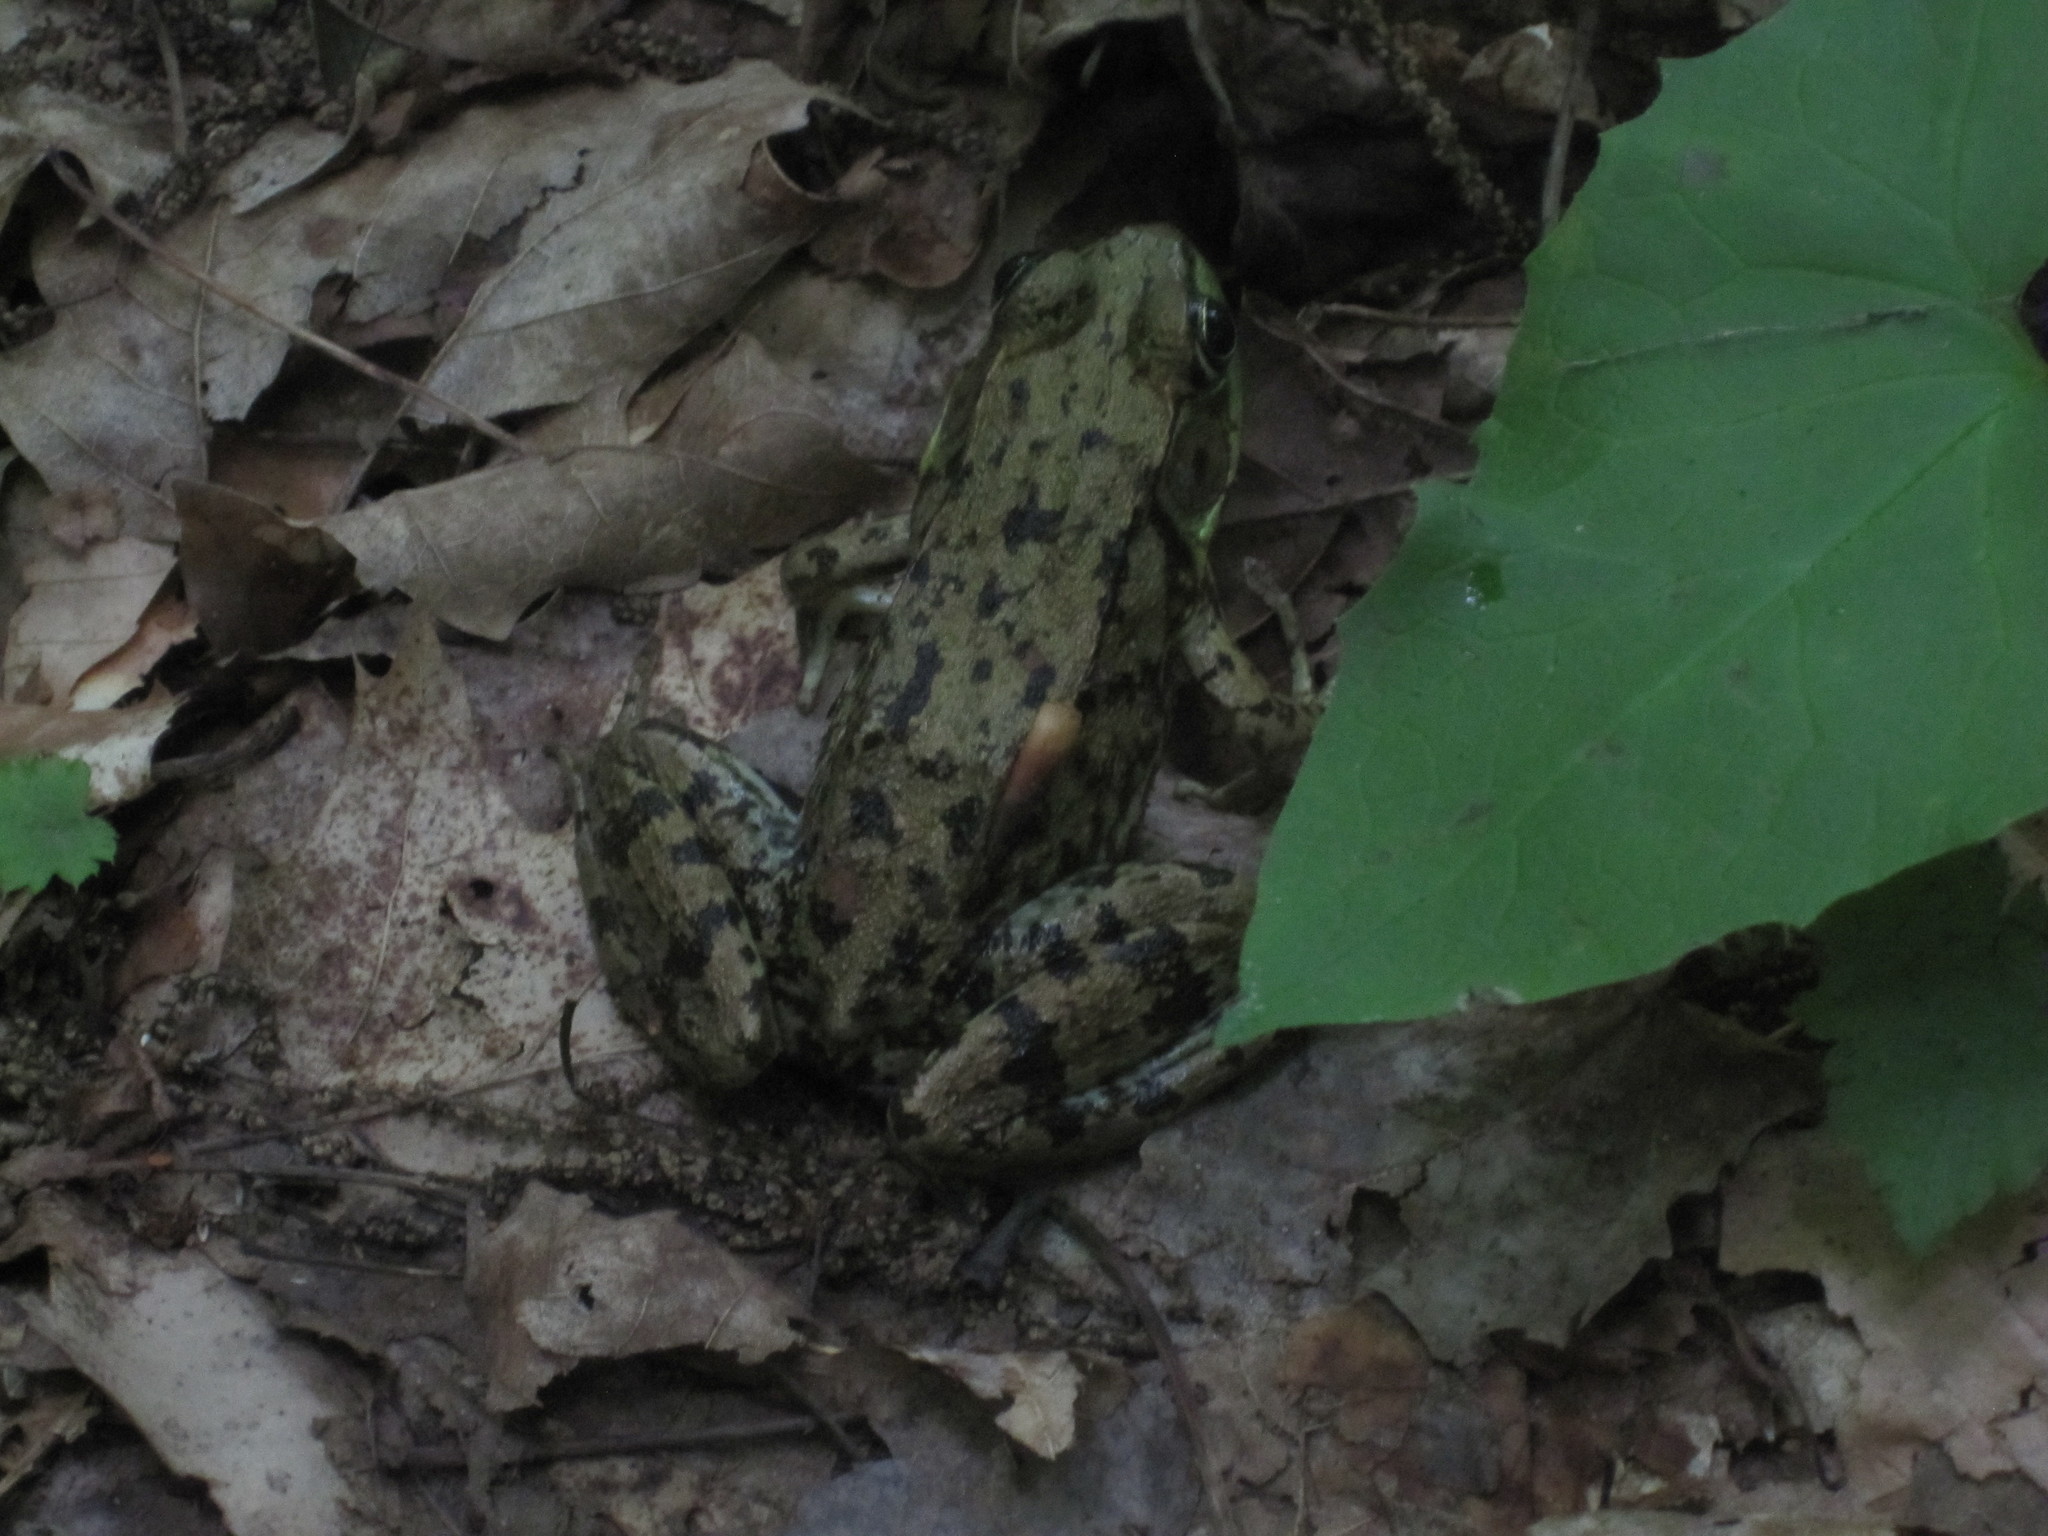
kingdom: Animalia
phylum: Chordata
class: Amphibia
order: Anura
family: Ranidae
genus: Lithobates
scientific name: Lithobates clamitans
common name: Green frog
